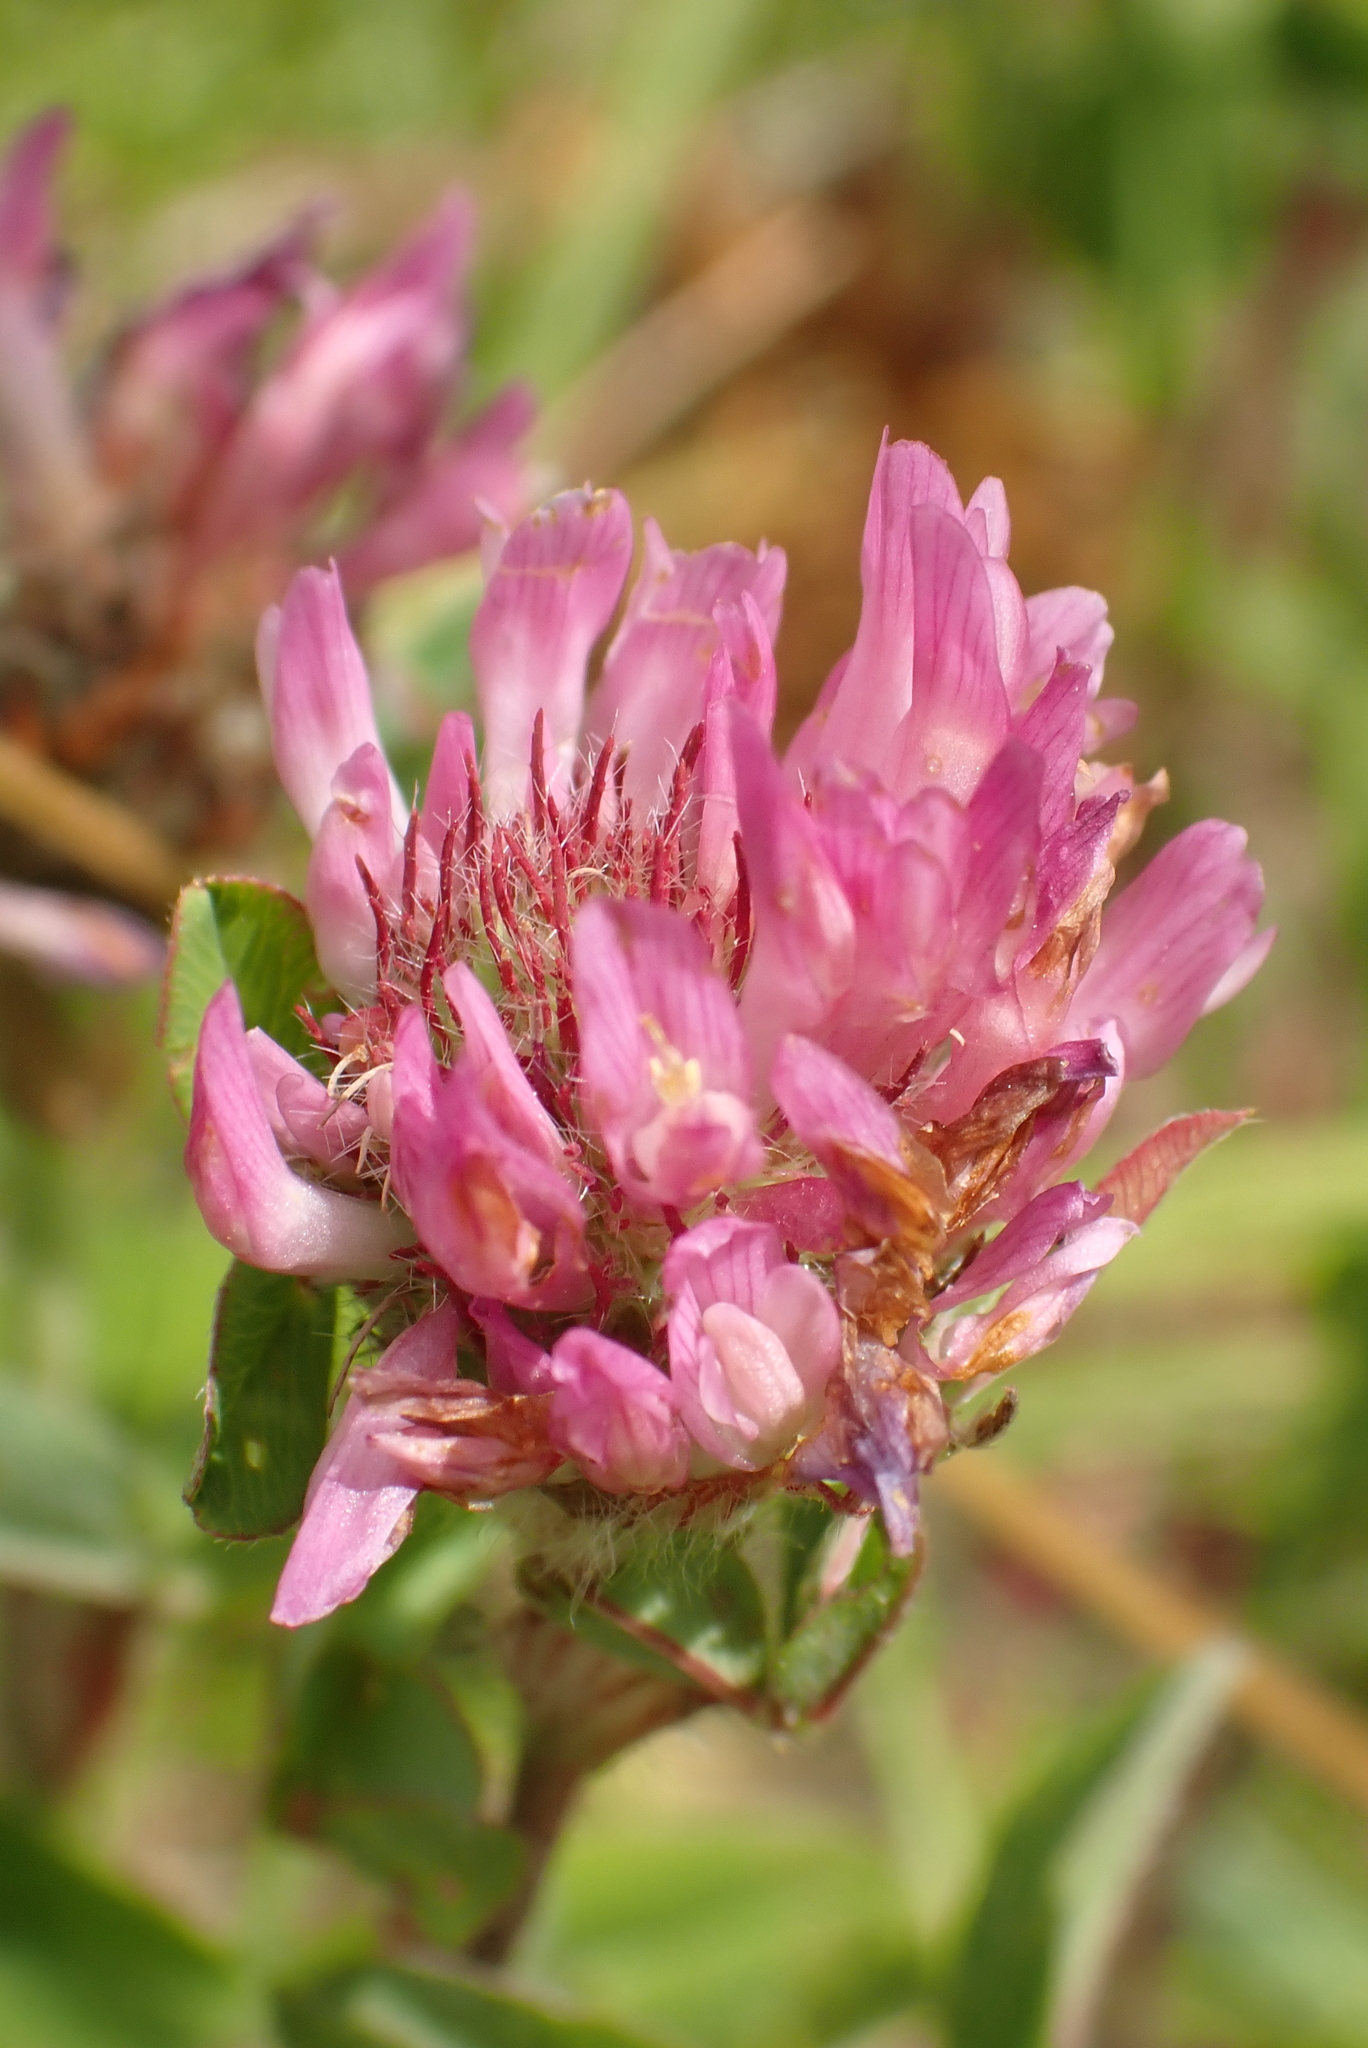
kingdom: Plantae
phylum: Tracheophyta
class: Magnoliopsida
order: Fabales
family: Fabaceae
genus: Trifolium
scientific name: Trifolium pratense
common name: Red clover
